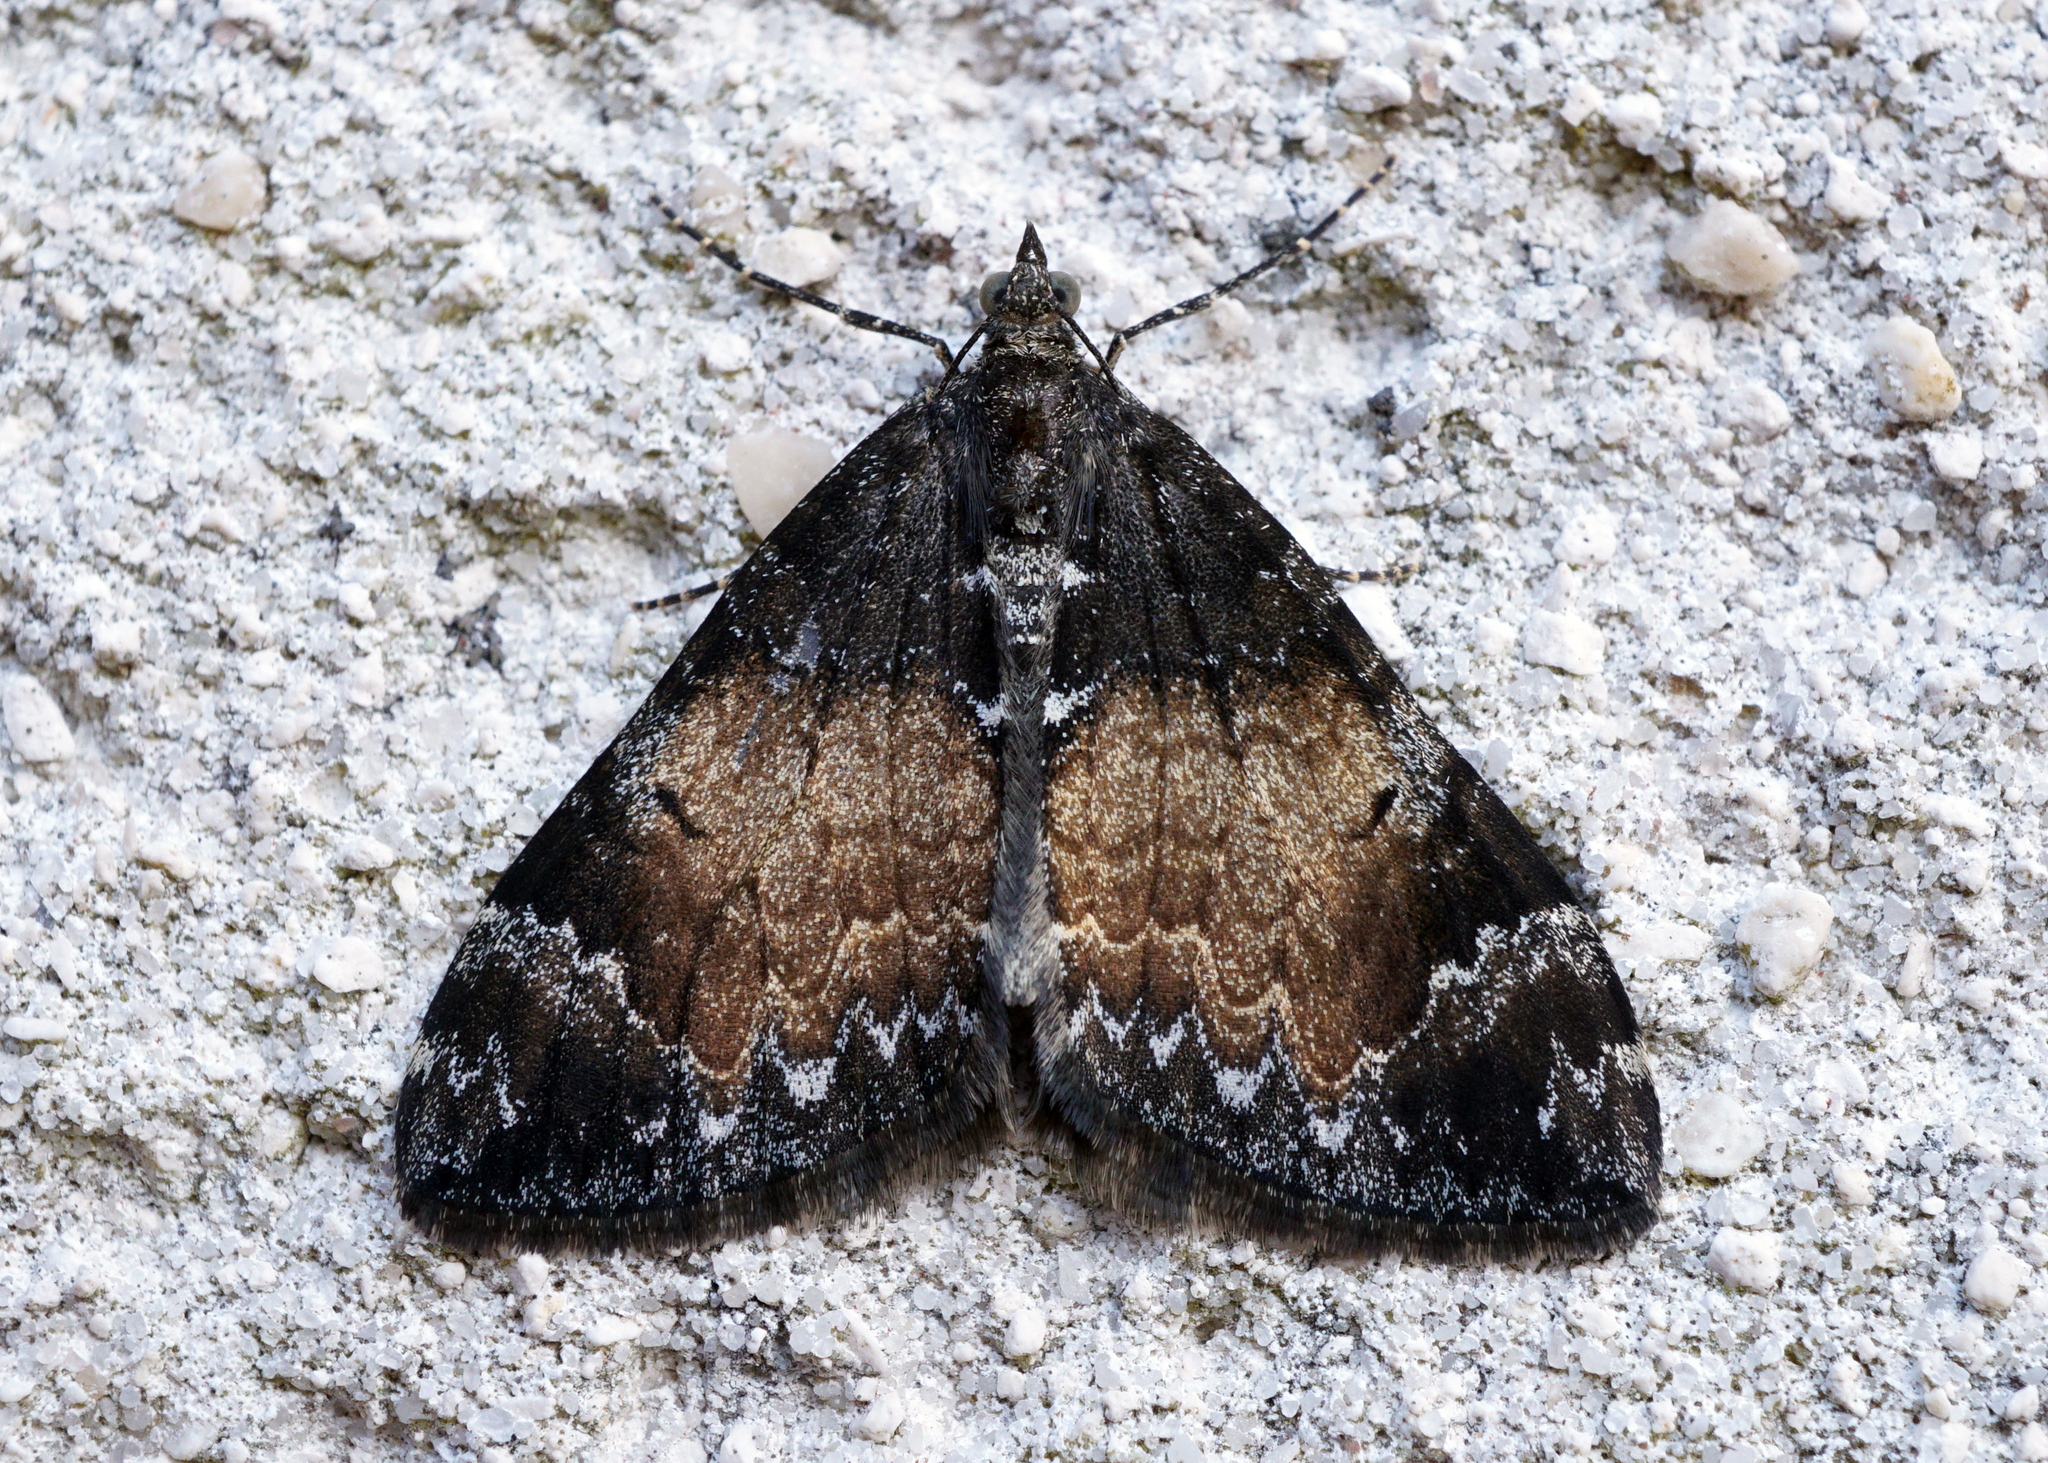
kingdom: Animalia
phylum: Arthropoda
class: Insecta
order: Lepidoptera
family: Geometridae
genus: Dysstroma
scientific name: Dysstroma truncata
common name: Common marbled carpet
